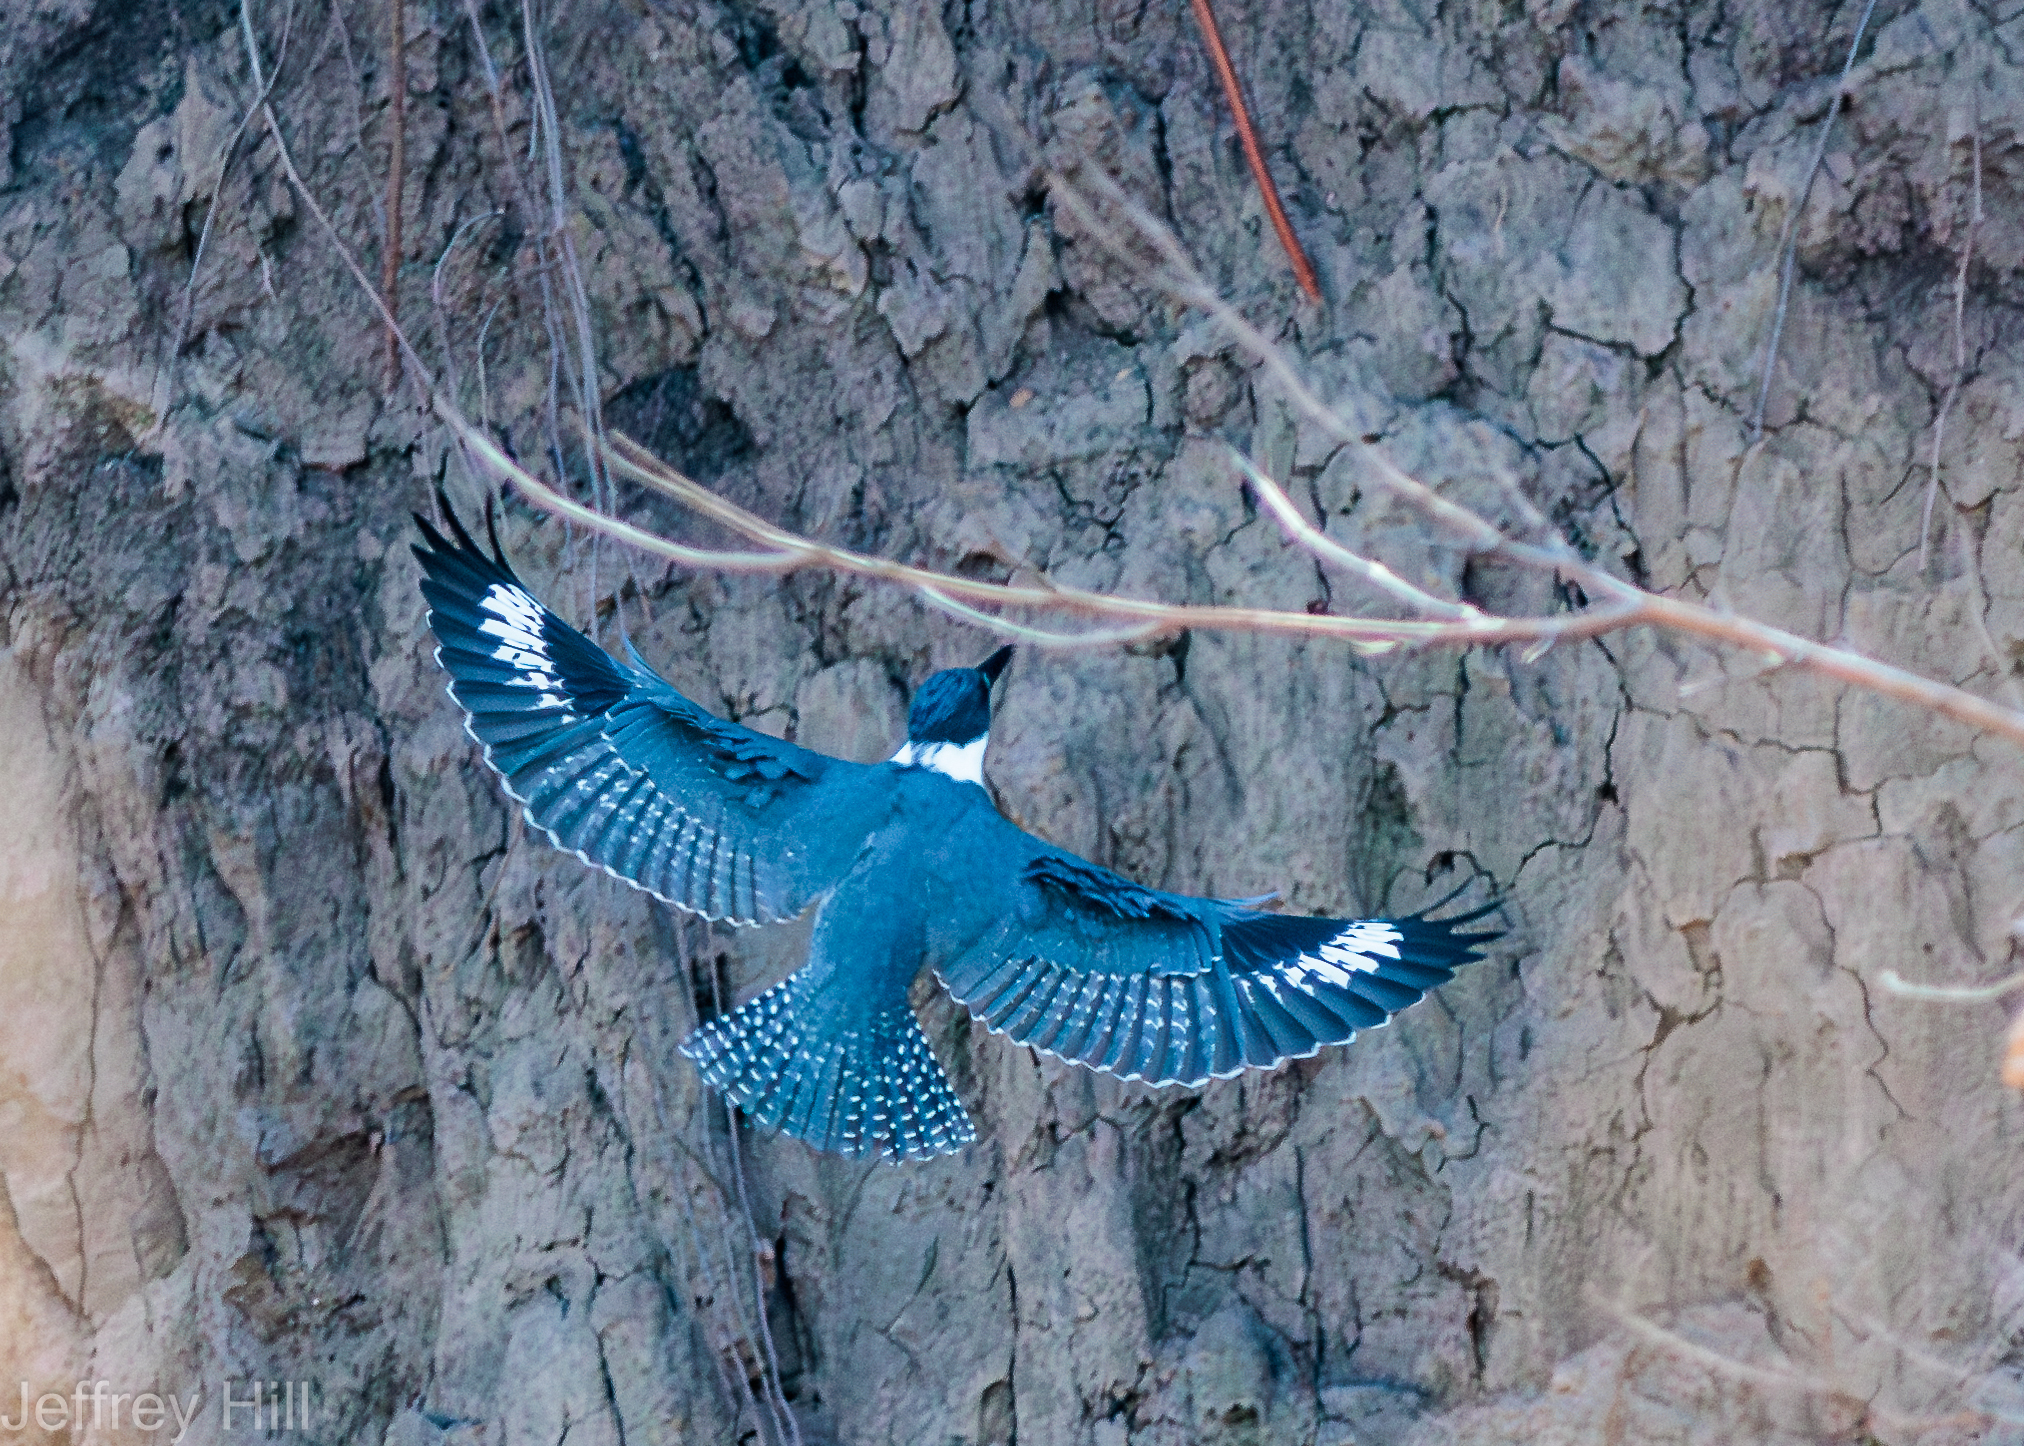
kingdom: Animalia
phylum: Chordata
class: Aves
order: Coraciiformes
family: Alcedinidae
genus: Megaceryle
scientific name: Megaceryle alcyon
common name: Belted kingfisher
